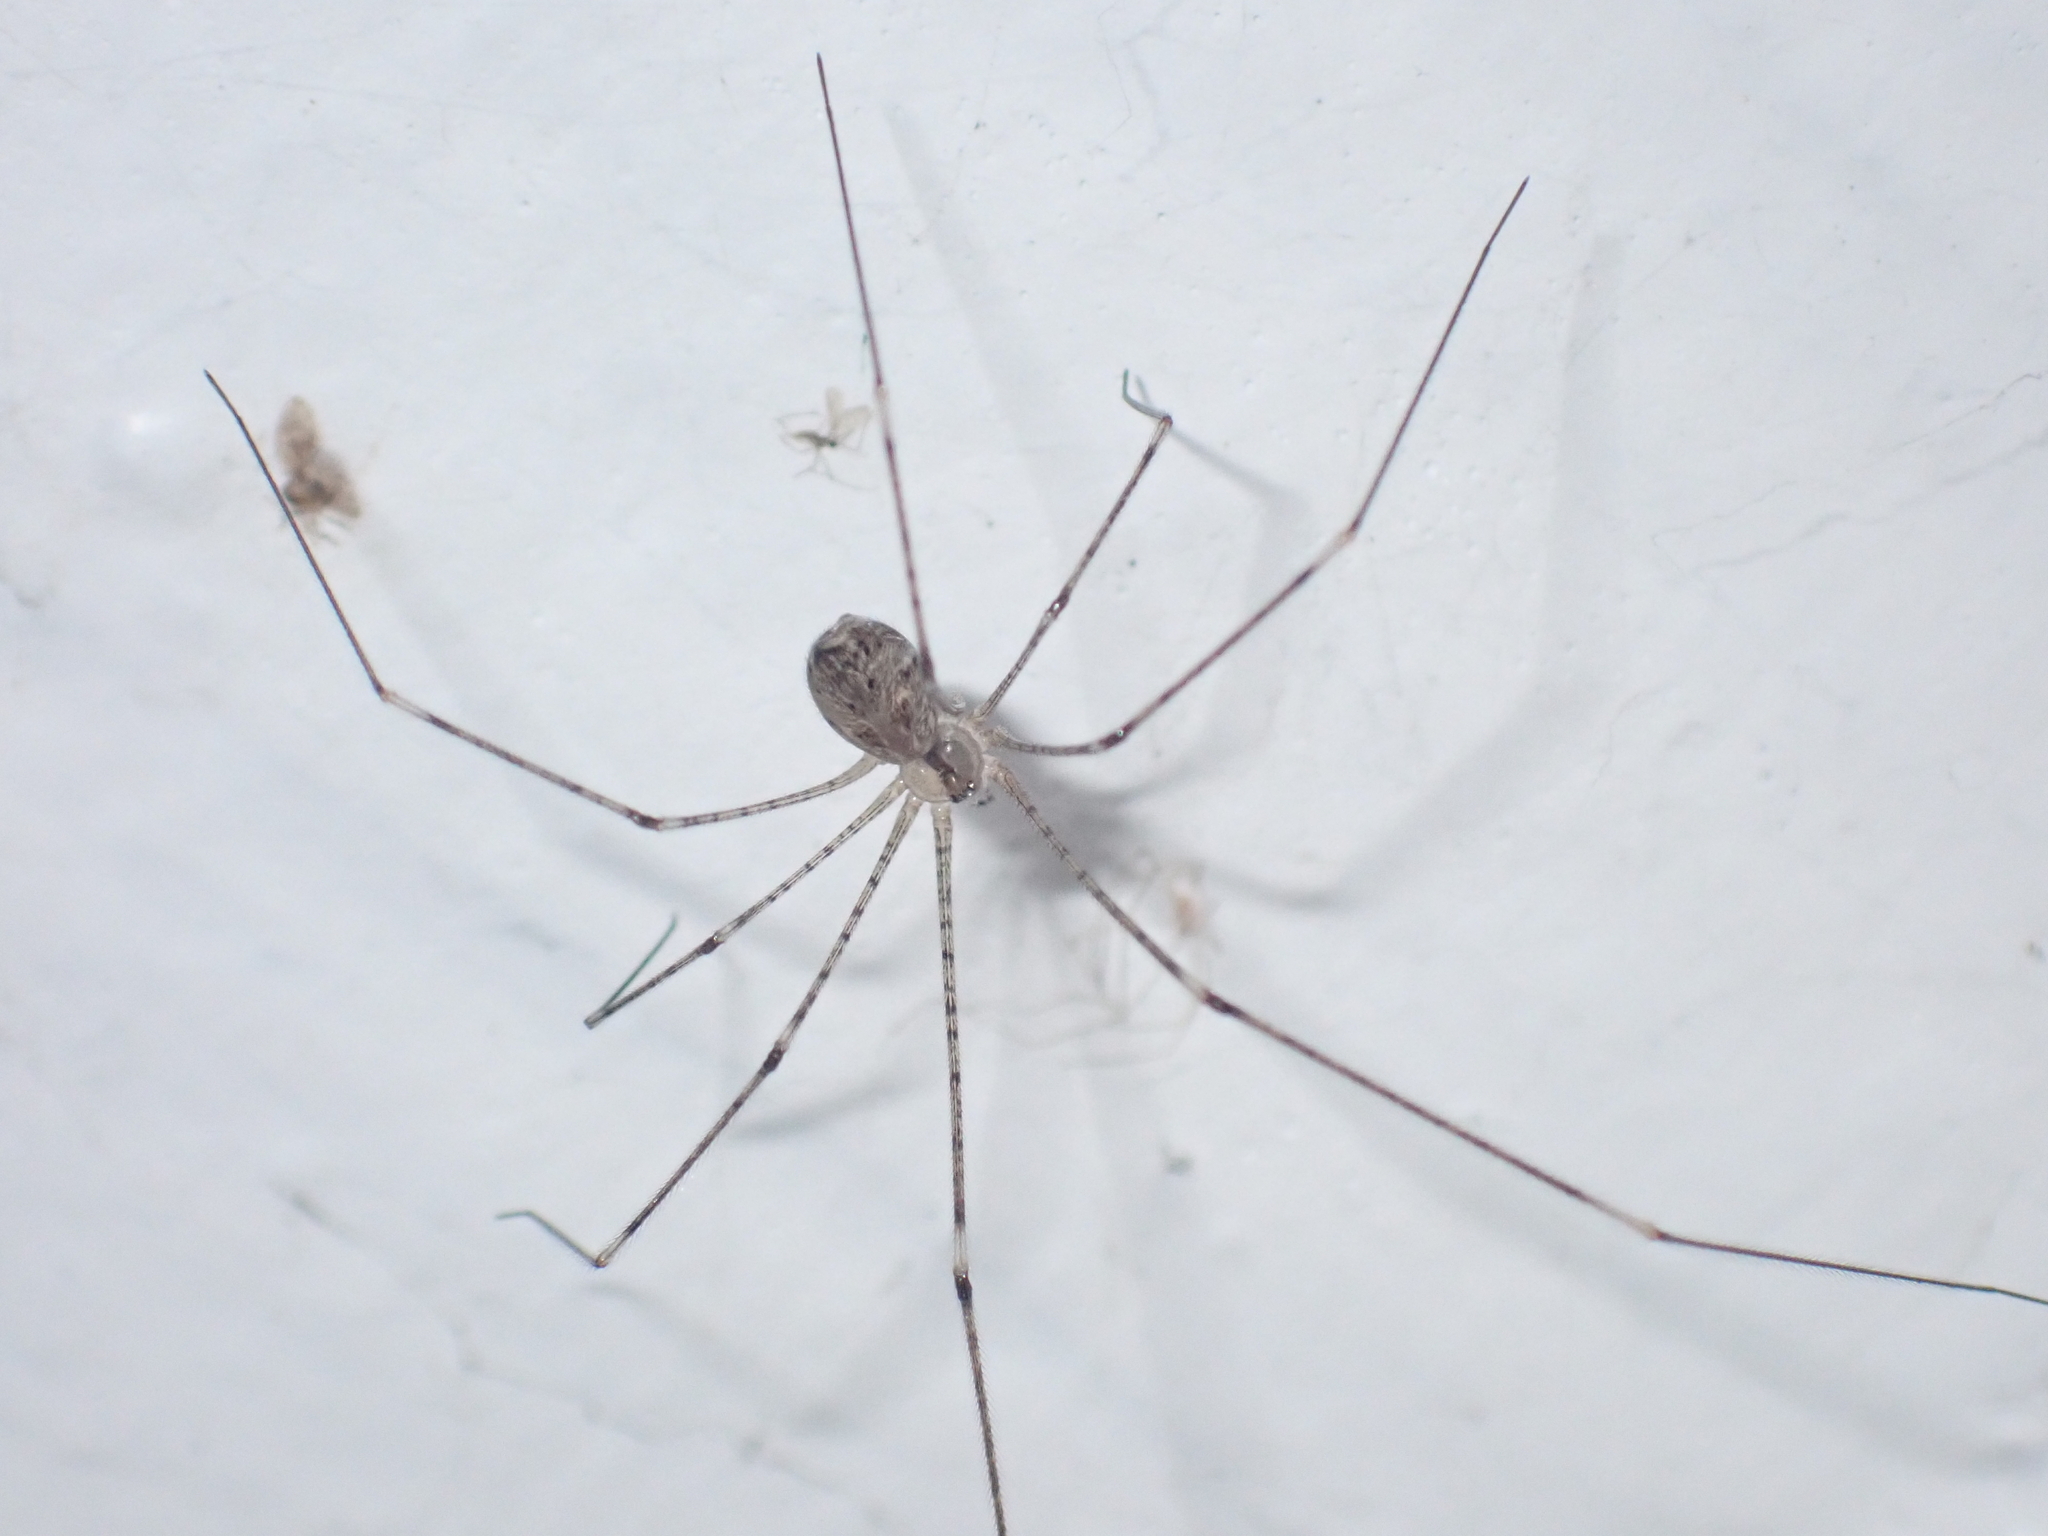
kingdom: Animalia
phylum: Arthropoda
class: Arachnida
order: Araneae
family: Pholcidae
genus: Crossopriza
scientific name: Crossopriza lyoni
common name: Cellar spiders
